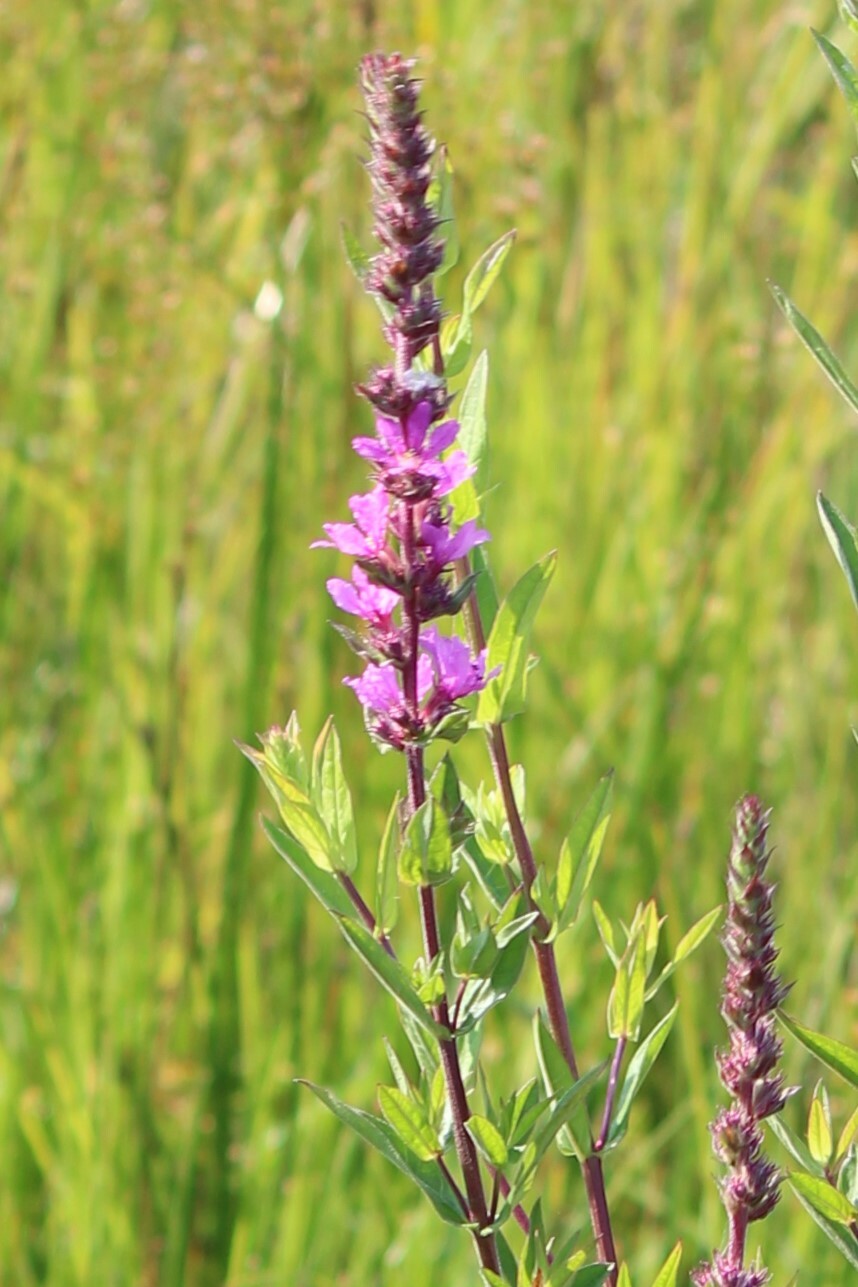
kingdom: Plantae
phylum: Tracheophyta
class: Magnoliopsida
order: Myrtales
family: Lythraceae
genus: Lythrum
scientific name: Lythrum salicaria
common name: Purple loosestrife
